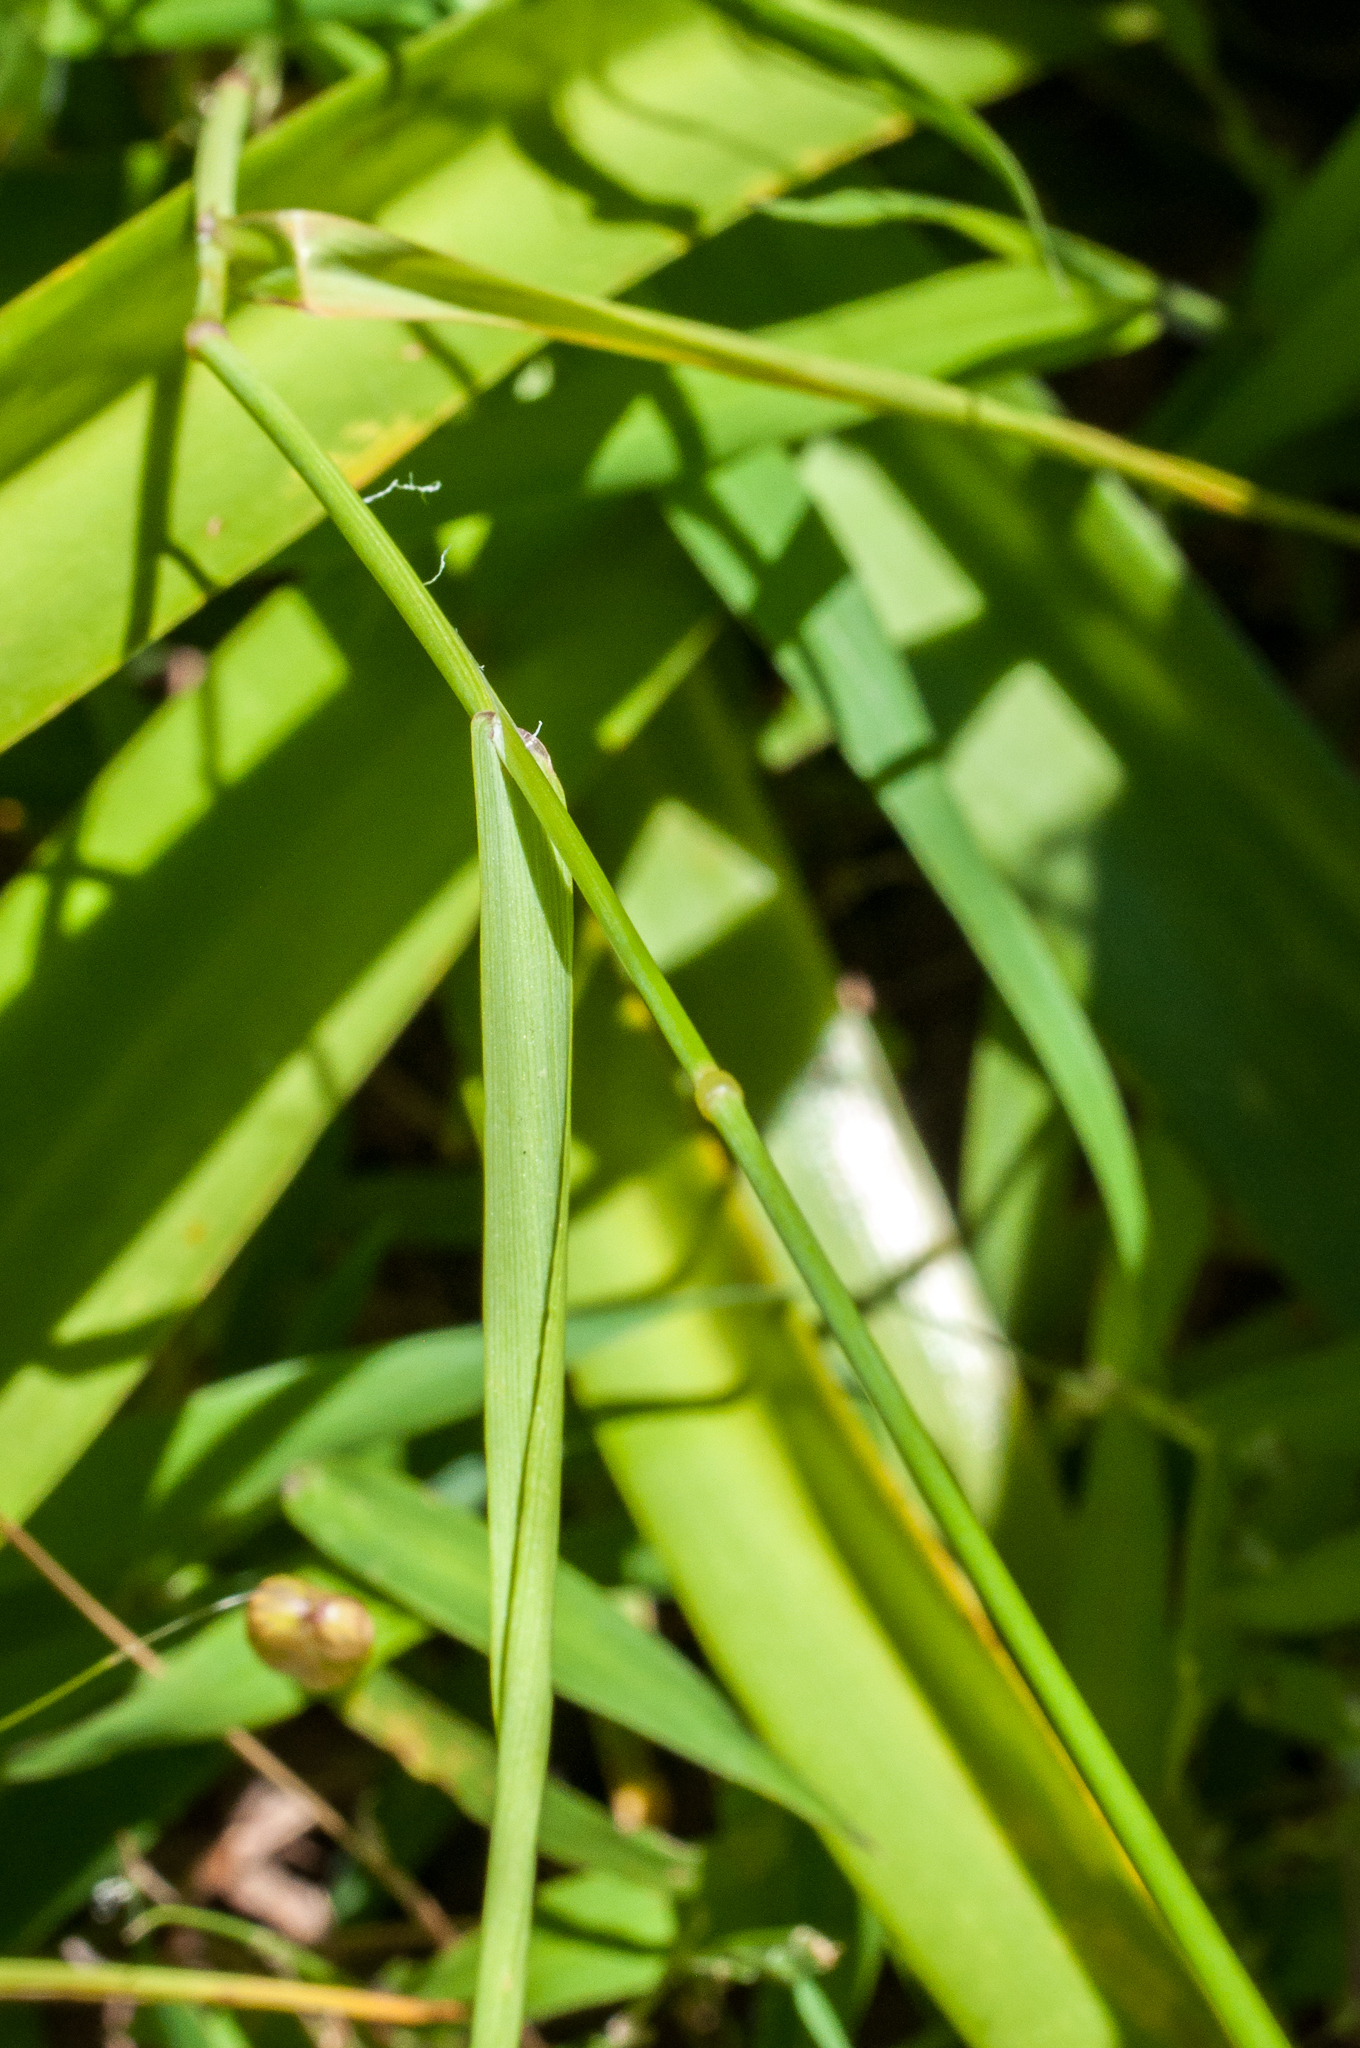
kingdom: Plantae
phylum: Tracheophyta
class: Liliopsida
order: Poales
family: Poaceae
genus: Briza
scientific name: Briza maxima
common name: Big quakinggrass
